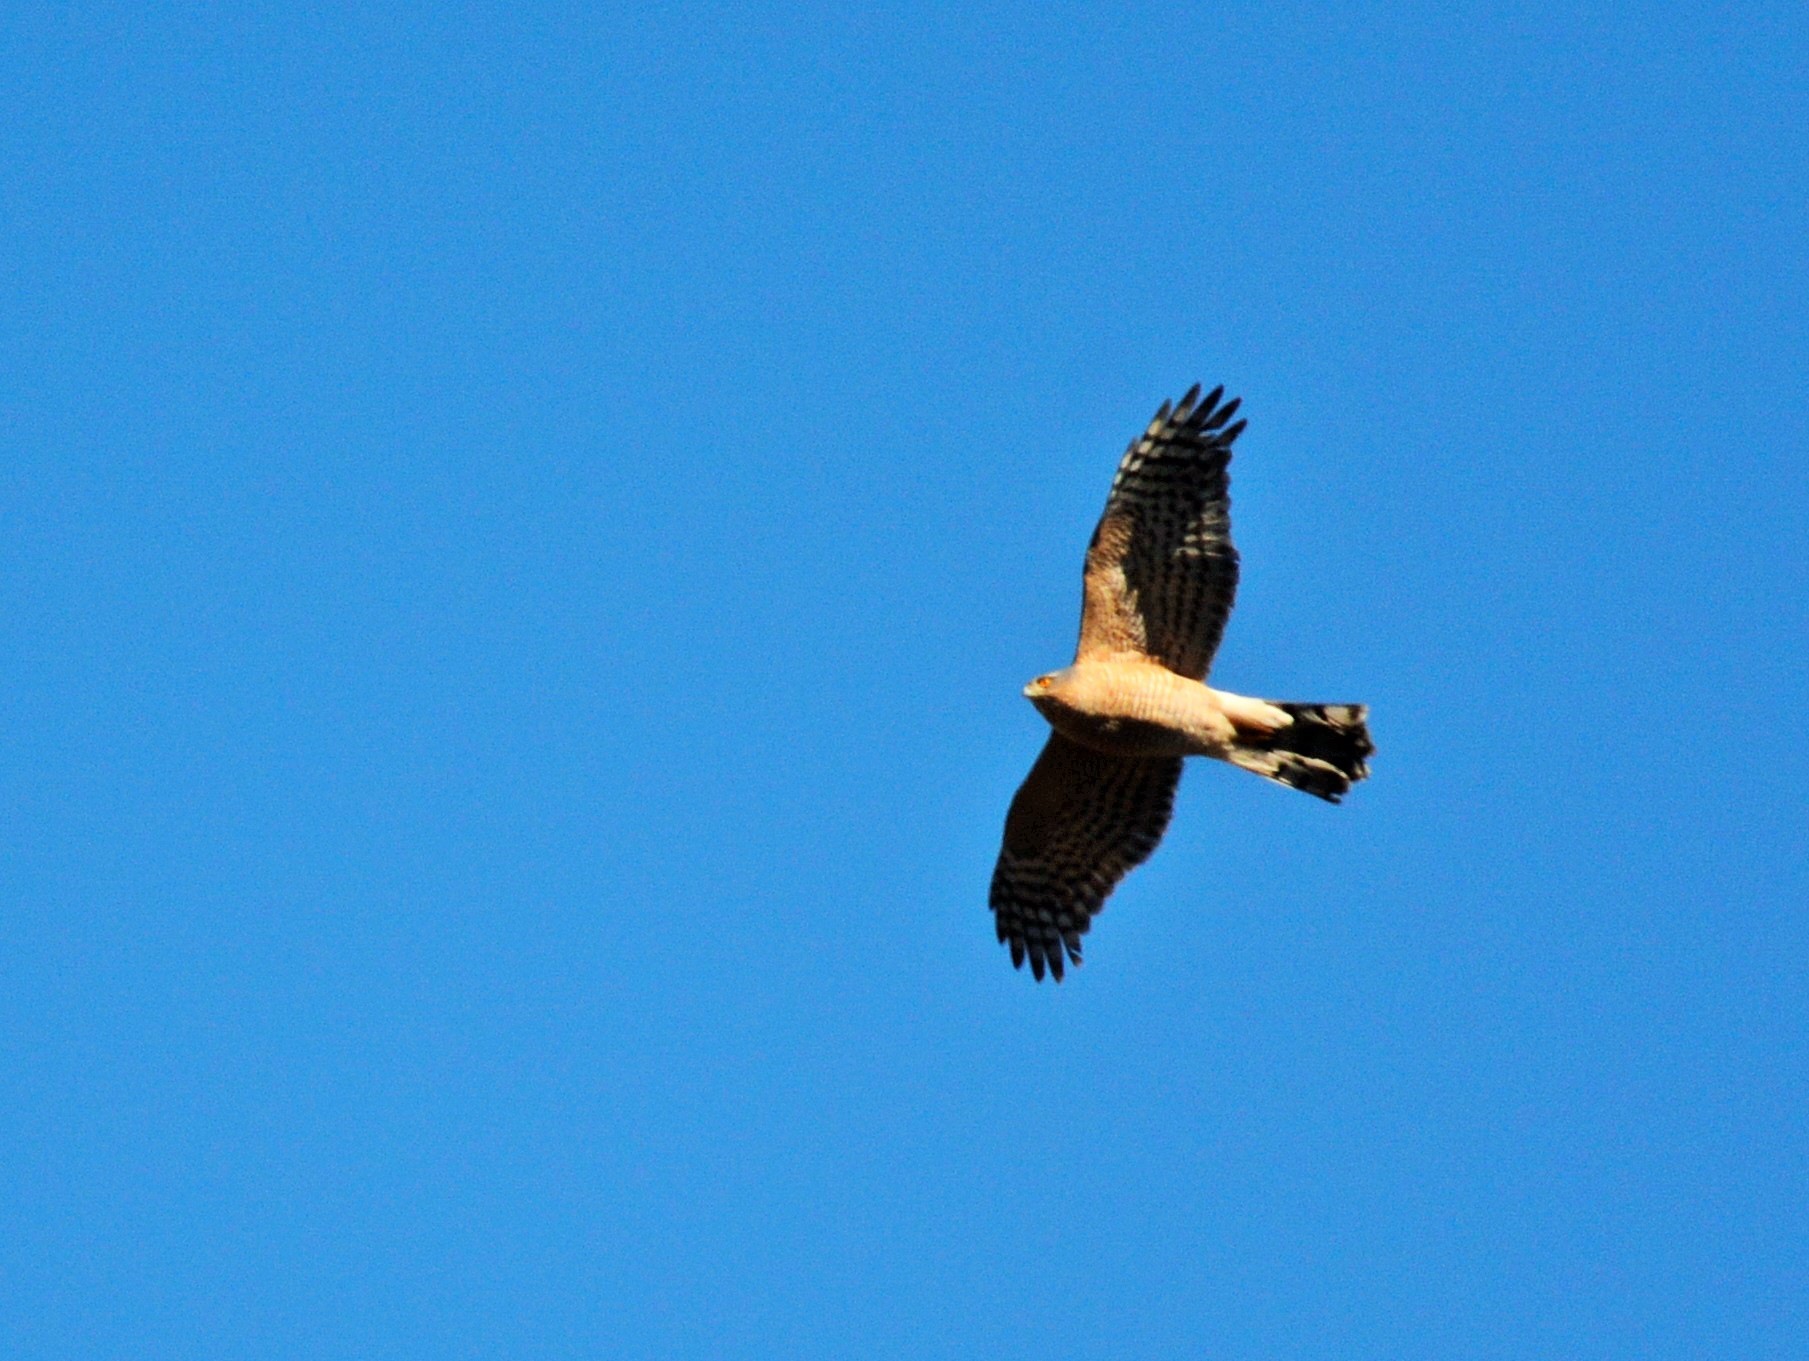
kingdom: Animalia
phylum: Chordata
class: Aves
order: Accipitriformes
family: Accipitridae
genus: Accipiter
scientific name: Accipiter nisus
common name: Eurasian sparrowhawk
